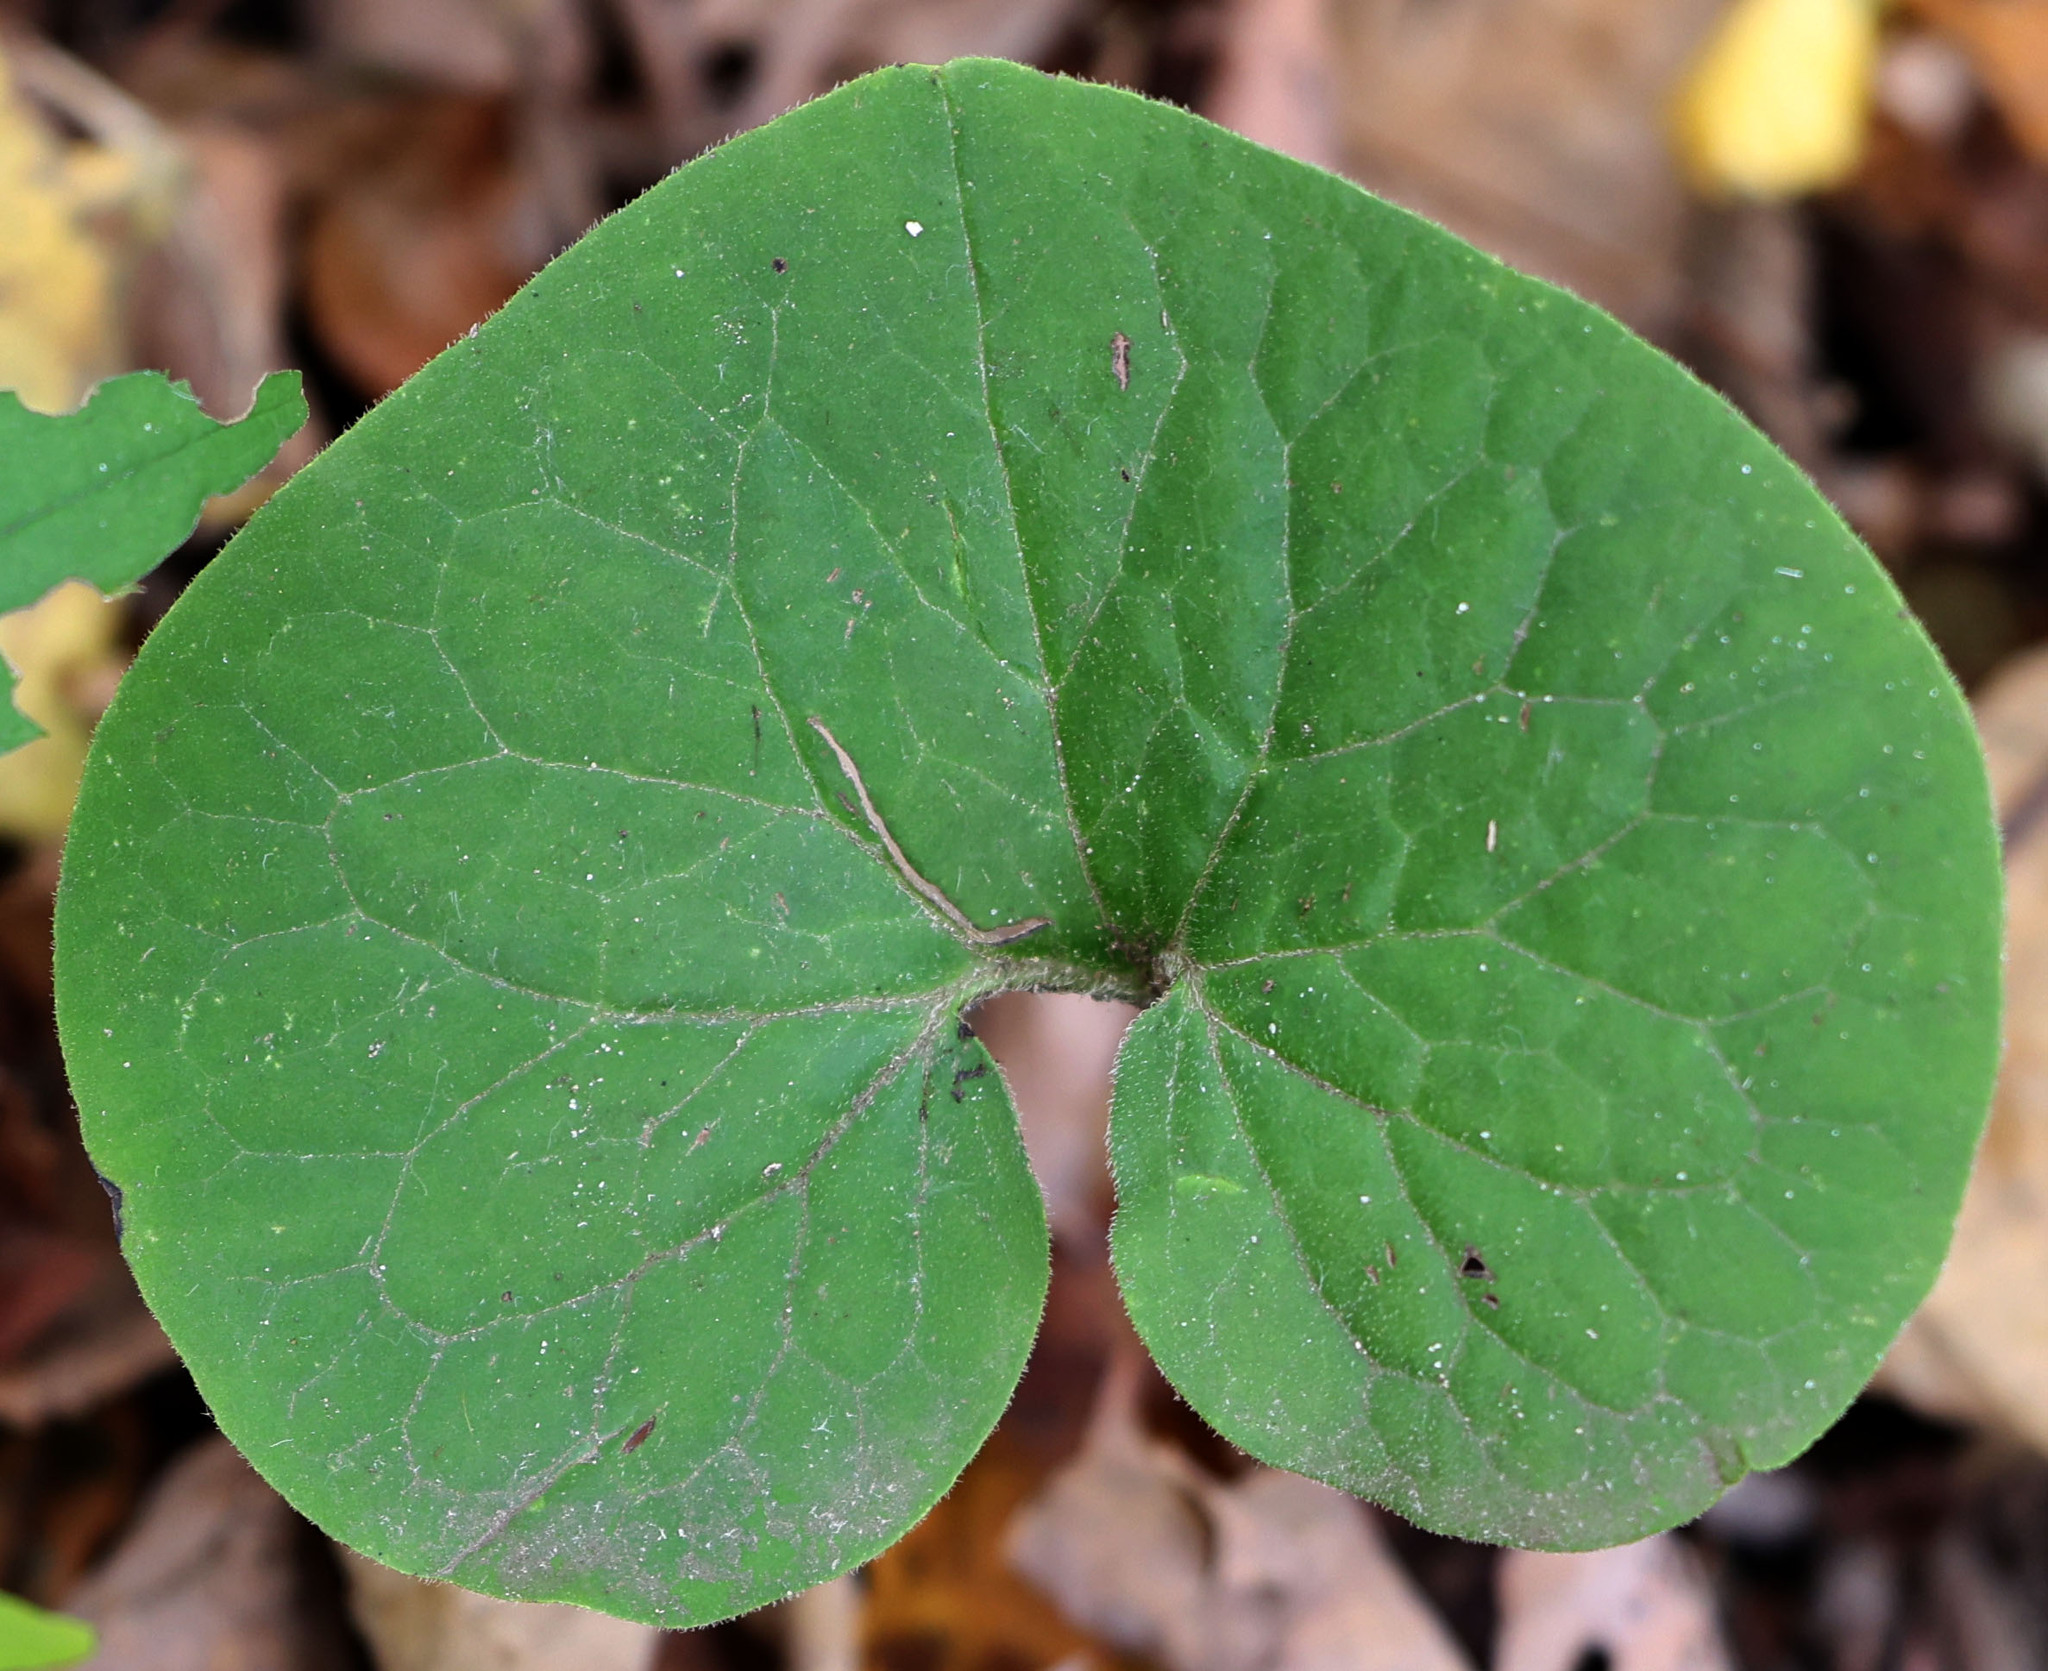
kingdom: Plantae
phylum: Tracheophyta
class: Magnoliopsida
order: Piperales
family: Aristolochiaceae
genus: Asarum
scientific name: Asarum canadense
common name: Wild ginger
